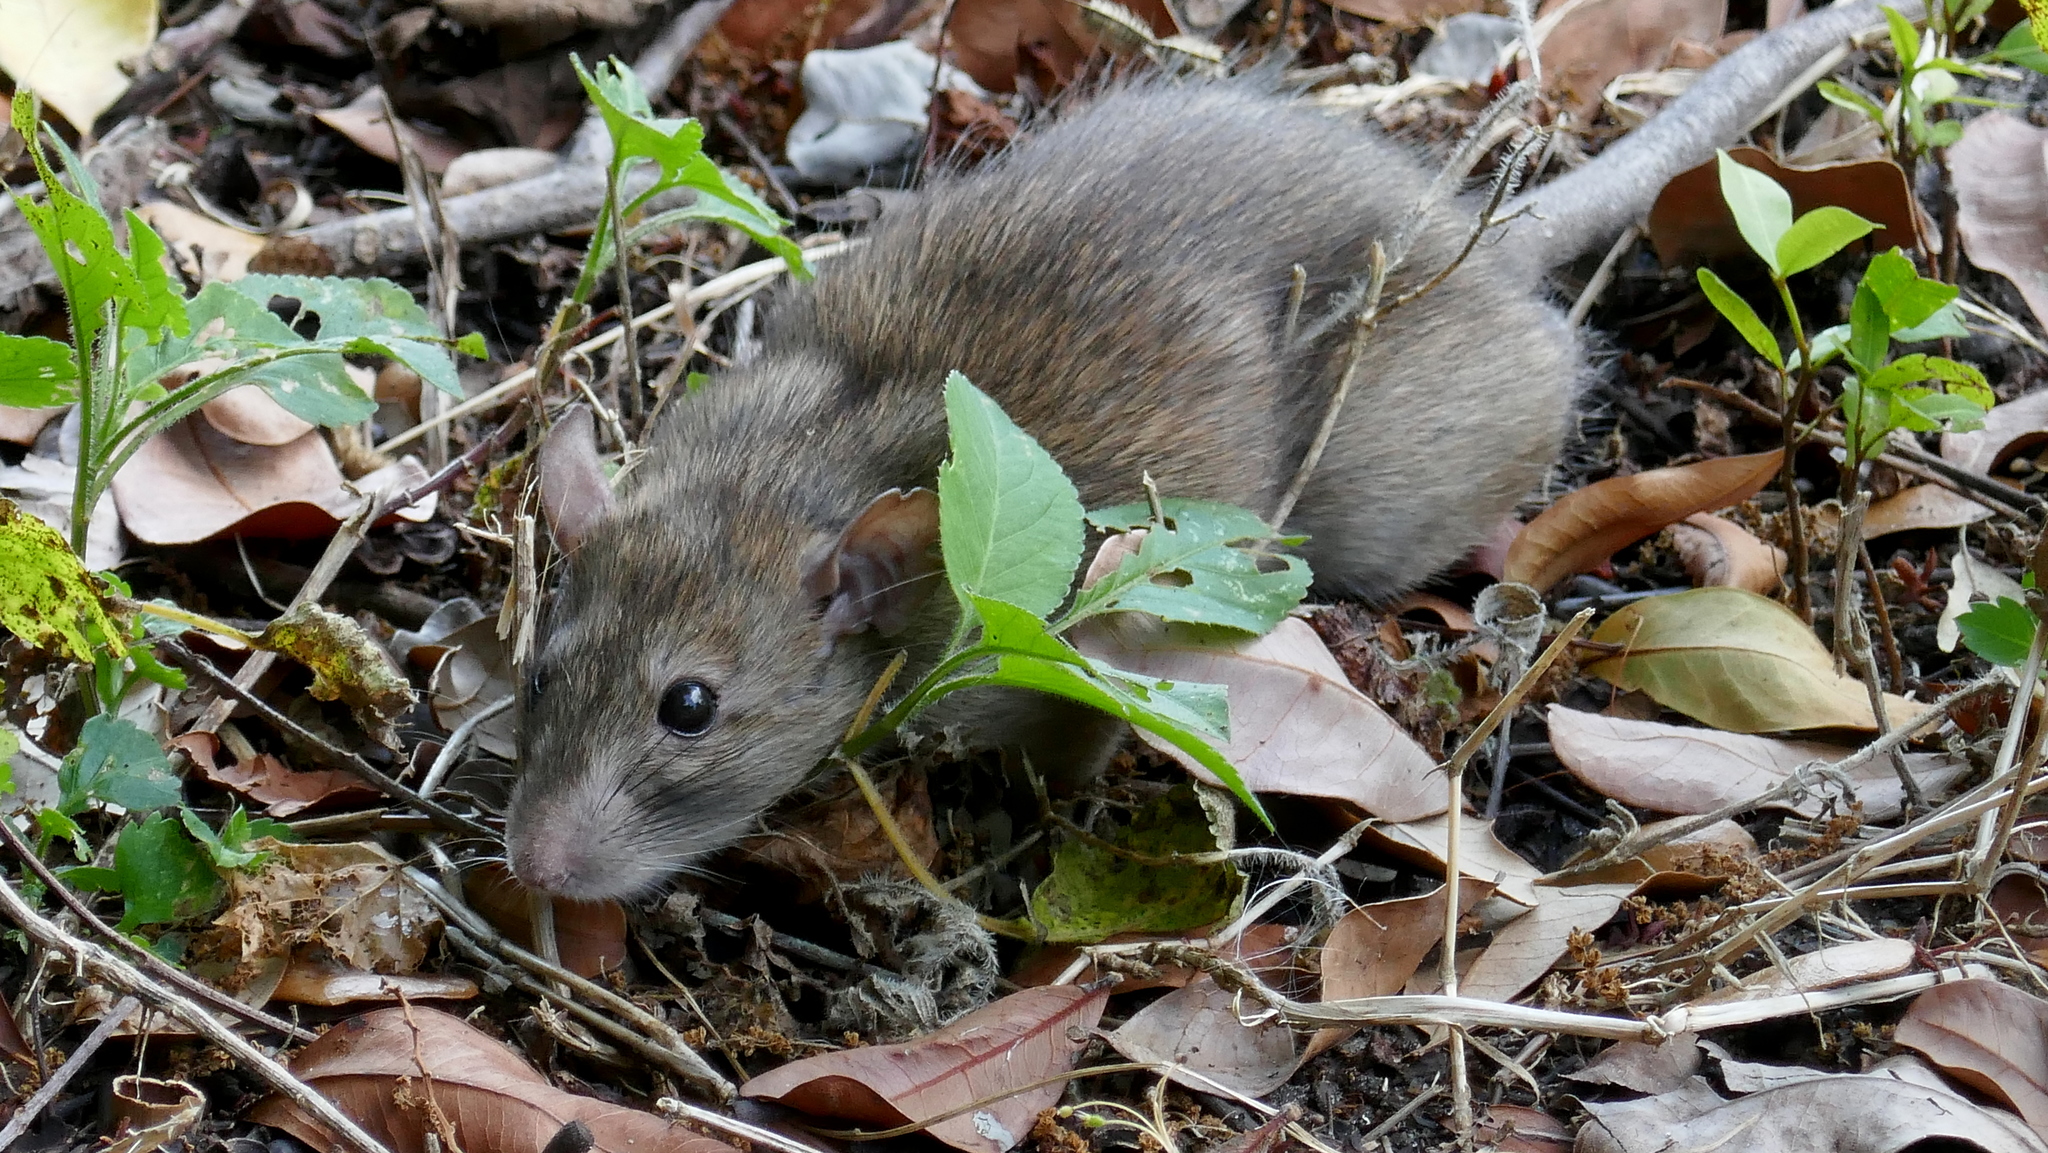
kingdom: Animalia
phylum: Chordata
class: Mammalia
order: Rodentia
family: Muridae
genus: Rattus
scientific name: Rattus rattus
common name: Black rat
